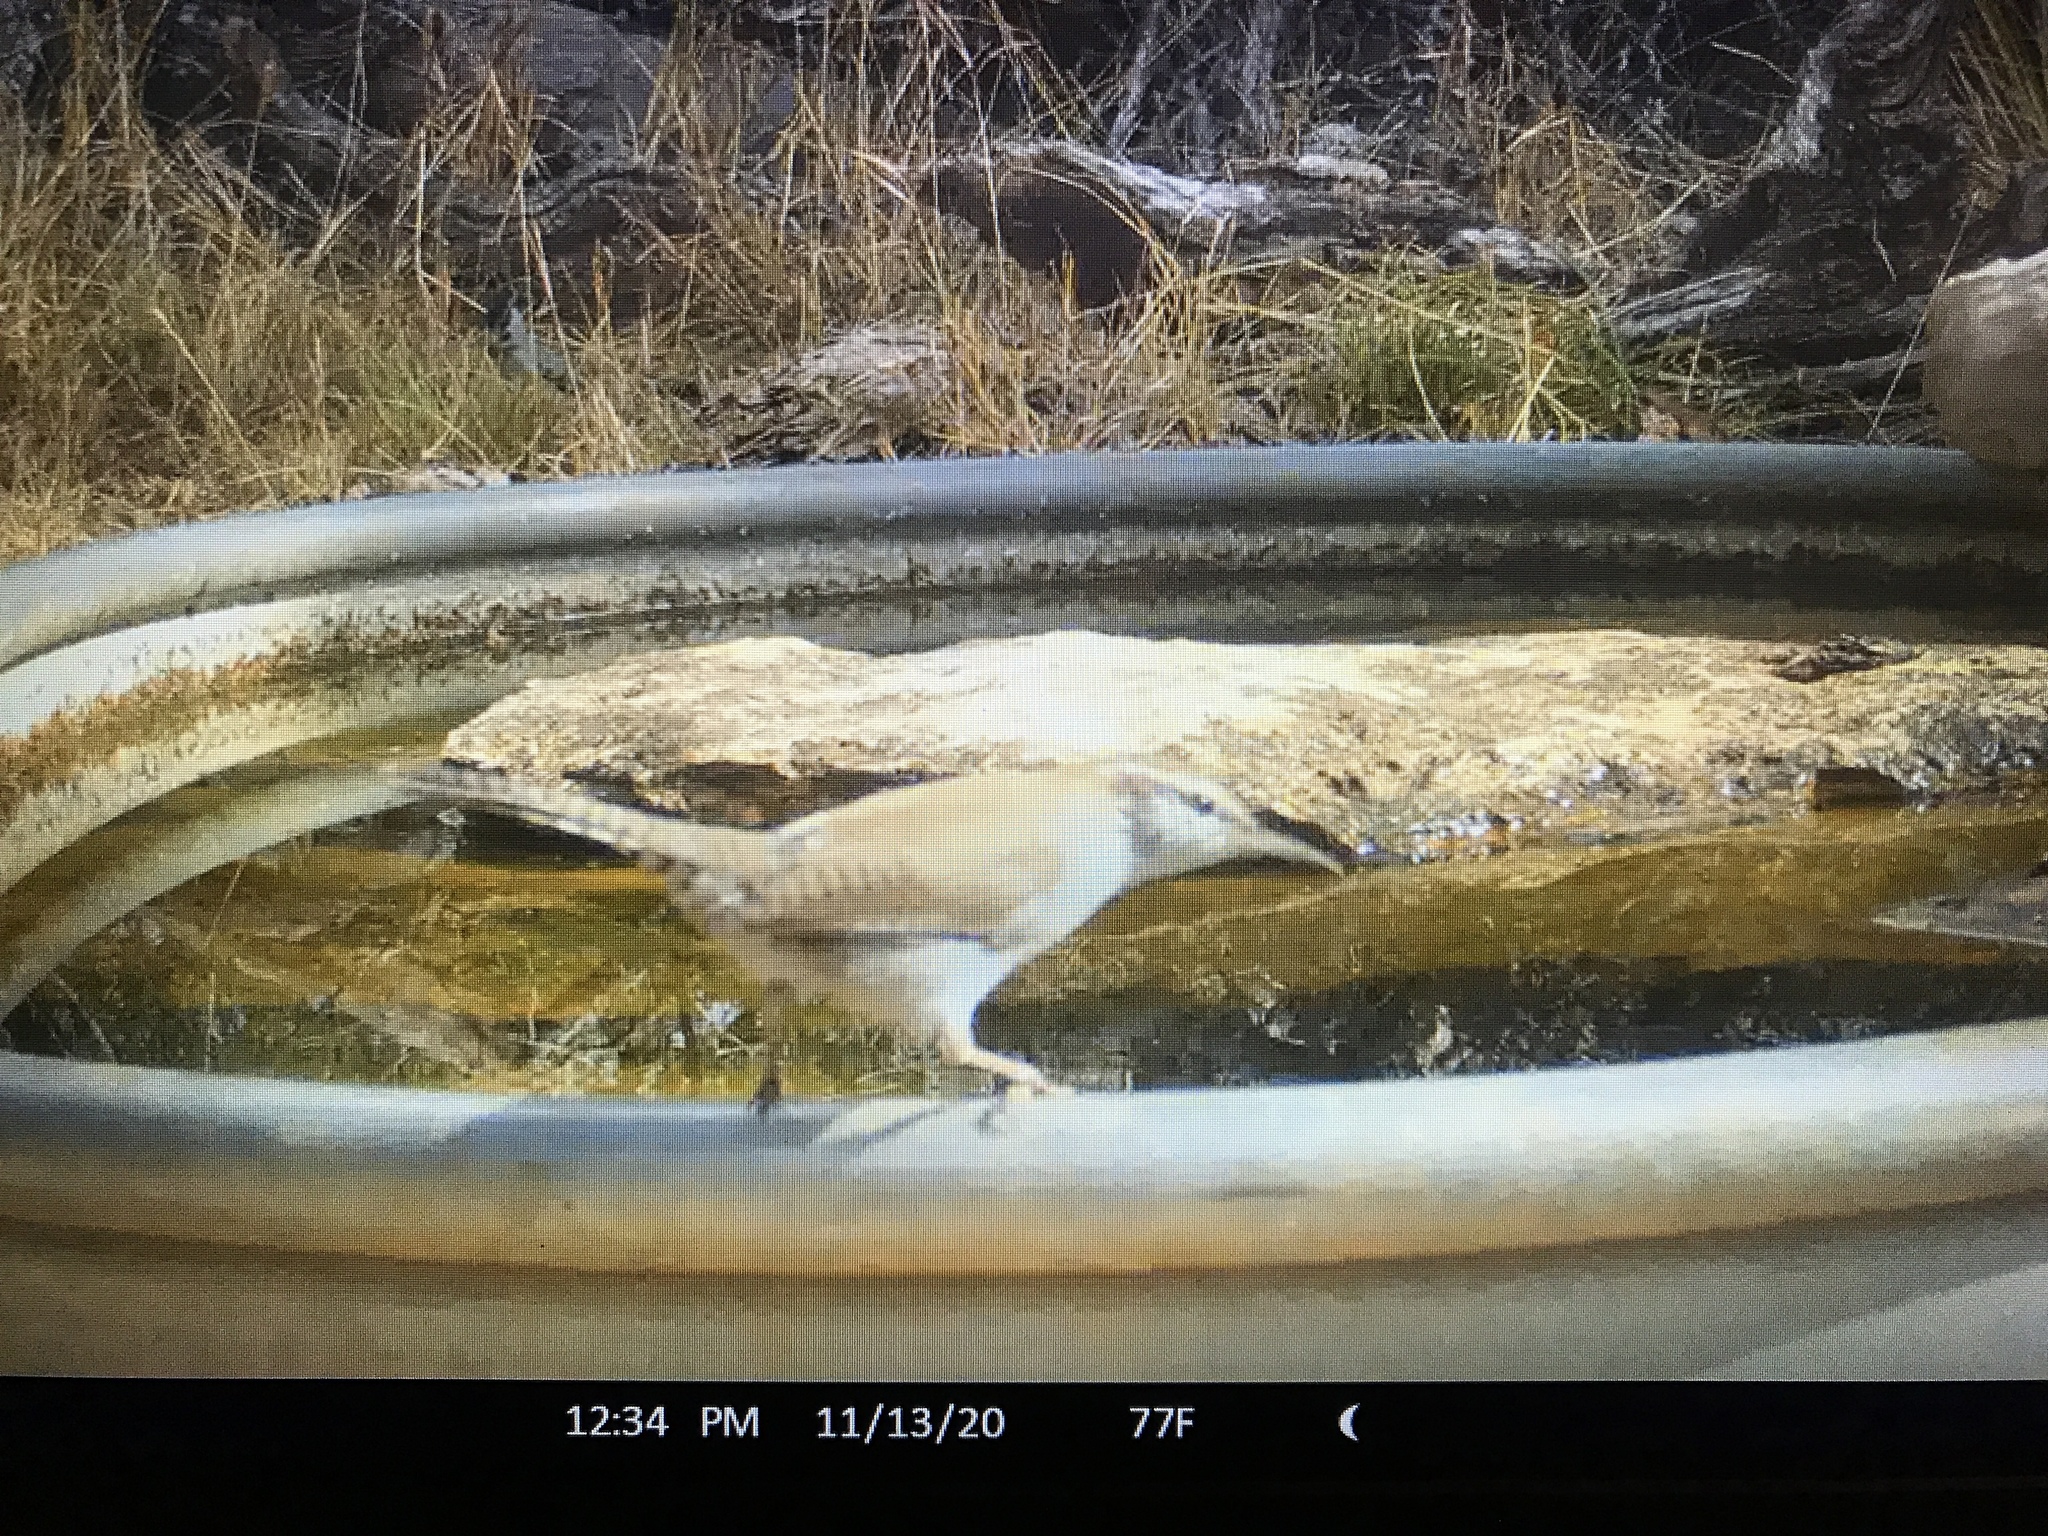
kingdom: Animalia
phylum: Chordata
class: Aves
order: Passeriformes
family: Troglodytidae
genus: Thryomanes
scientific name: Thryomanes bewickii
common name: Bewick's wren
